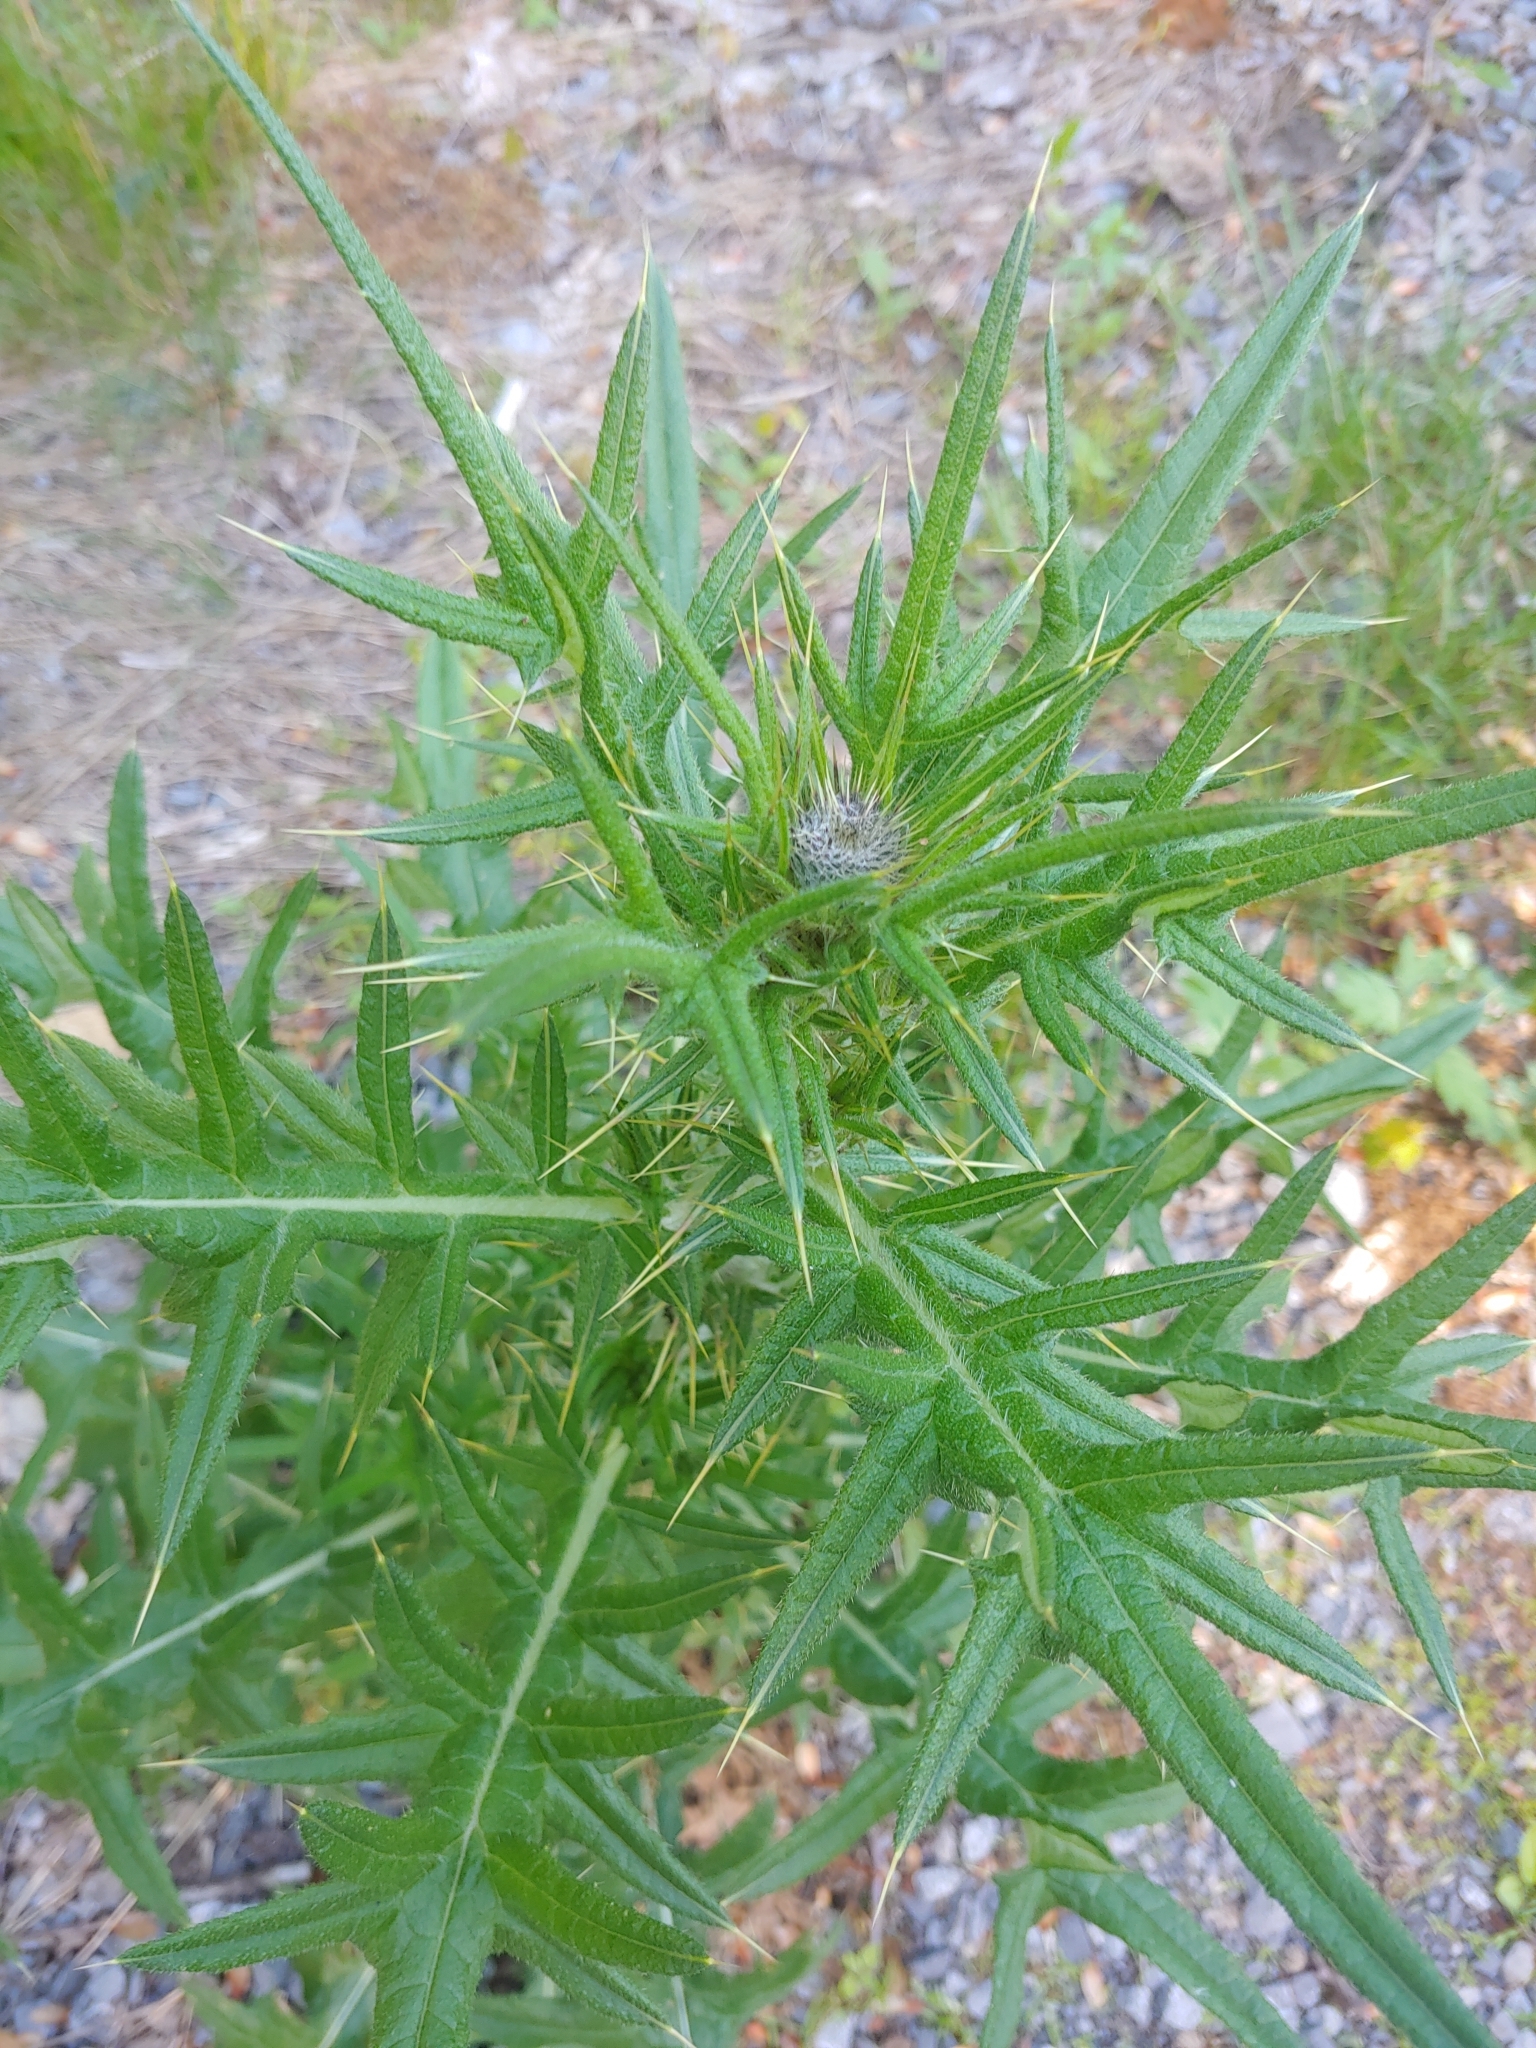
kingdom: Plantae
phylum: Tracheophyta
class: Magnoliopsida
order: Asterales
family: Asteraceae
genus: Cirsium
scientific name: Cirsium vulgare
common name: Bull thistle
